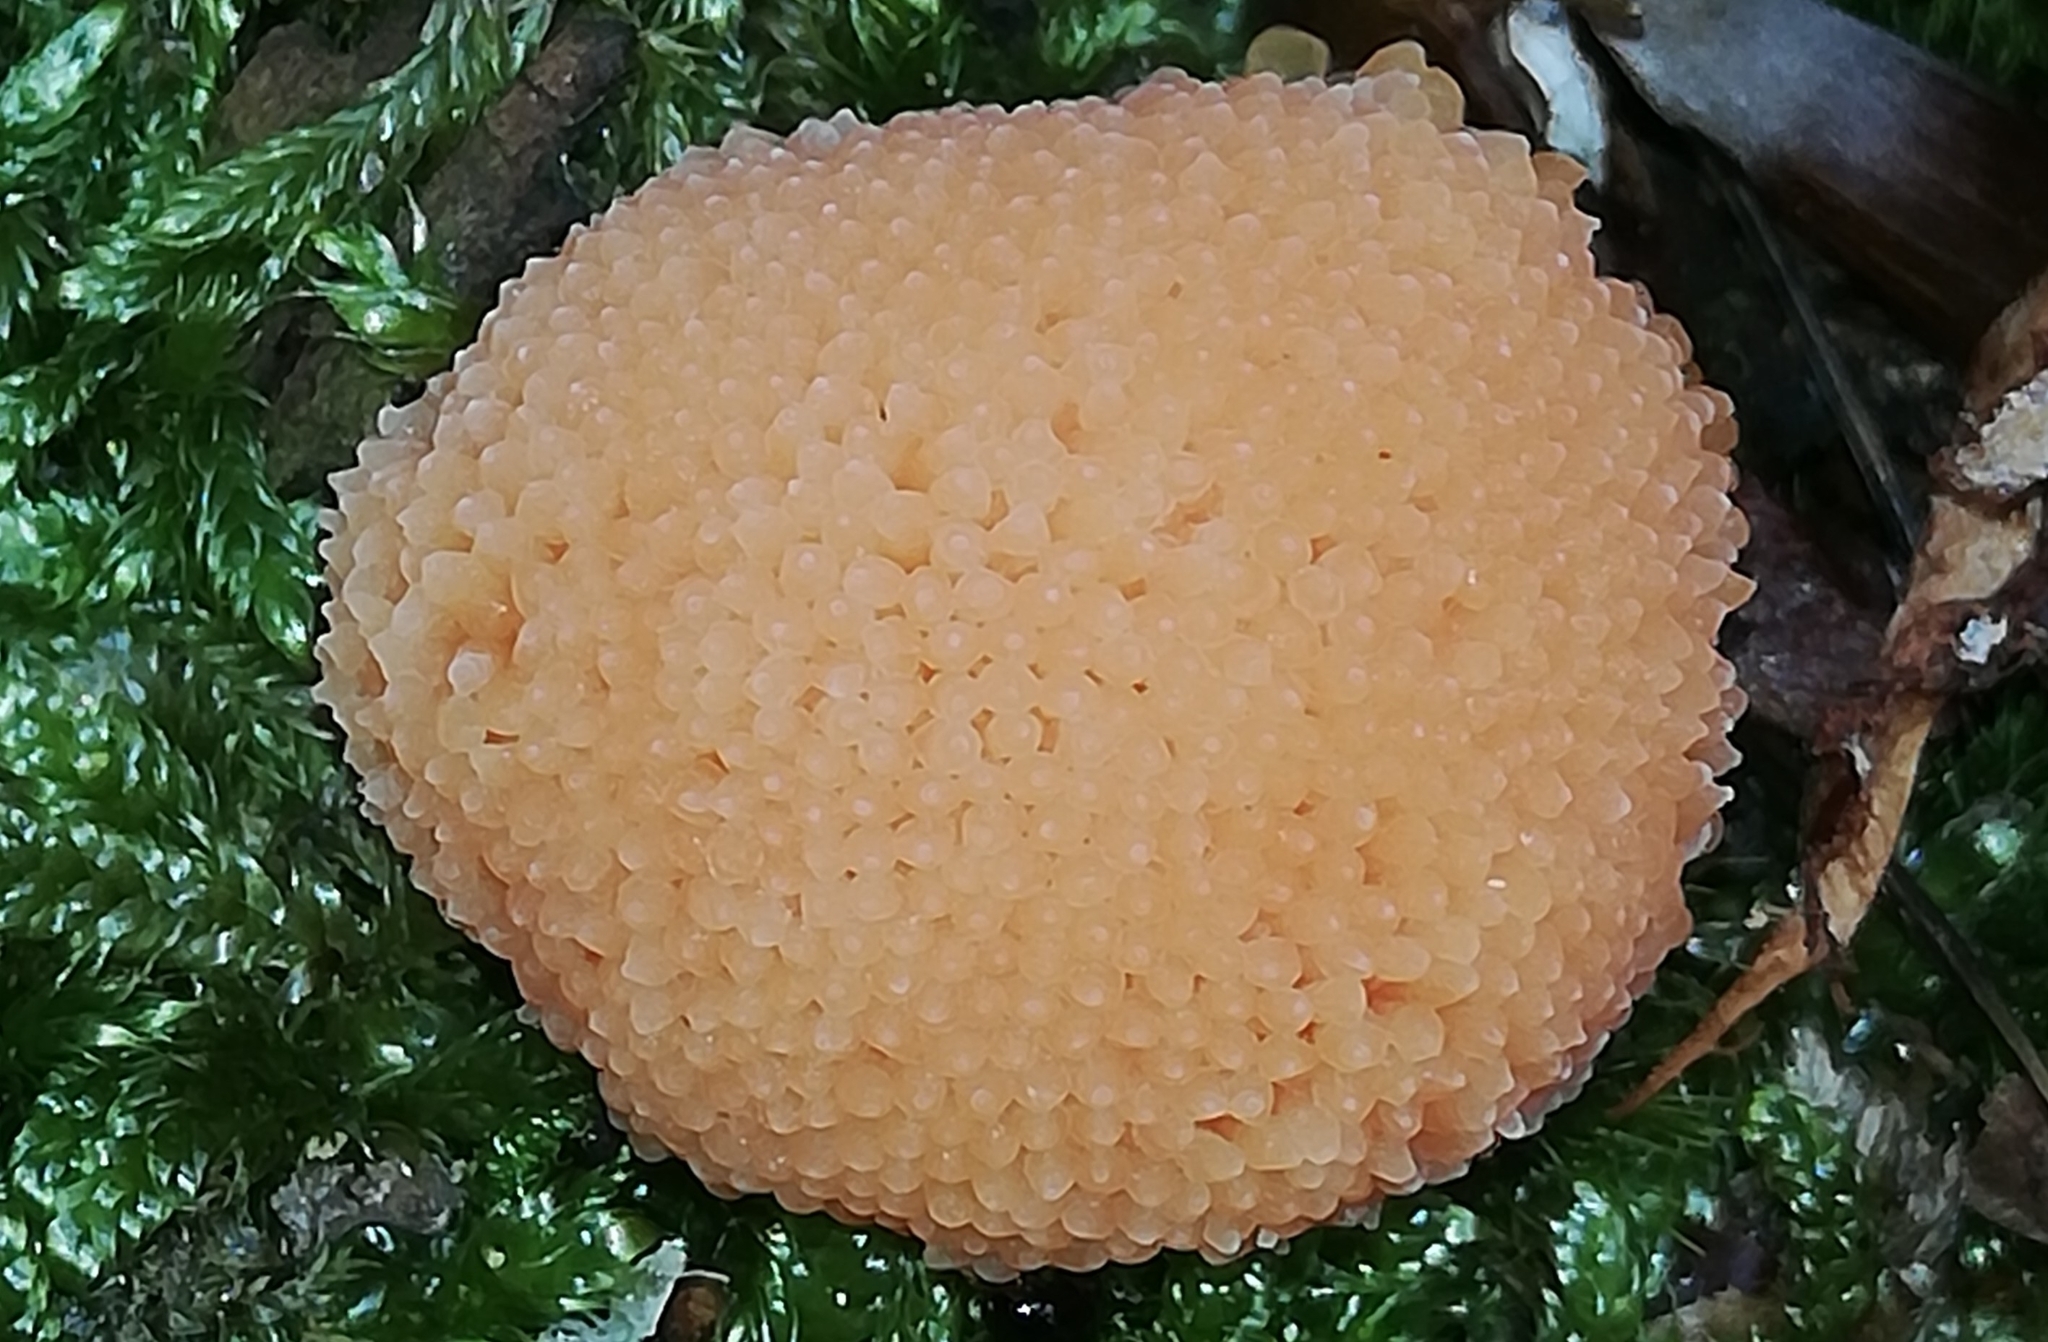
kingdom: Protozoa
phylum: Mycetozoa
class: Myxomycetes
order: Cribrariales
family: Tubiferaceae
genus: Tubifera
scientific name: Tubifera ferruginosa
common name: Red raspberry slime mold
